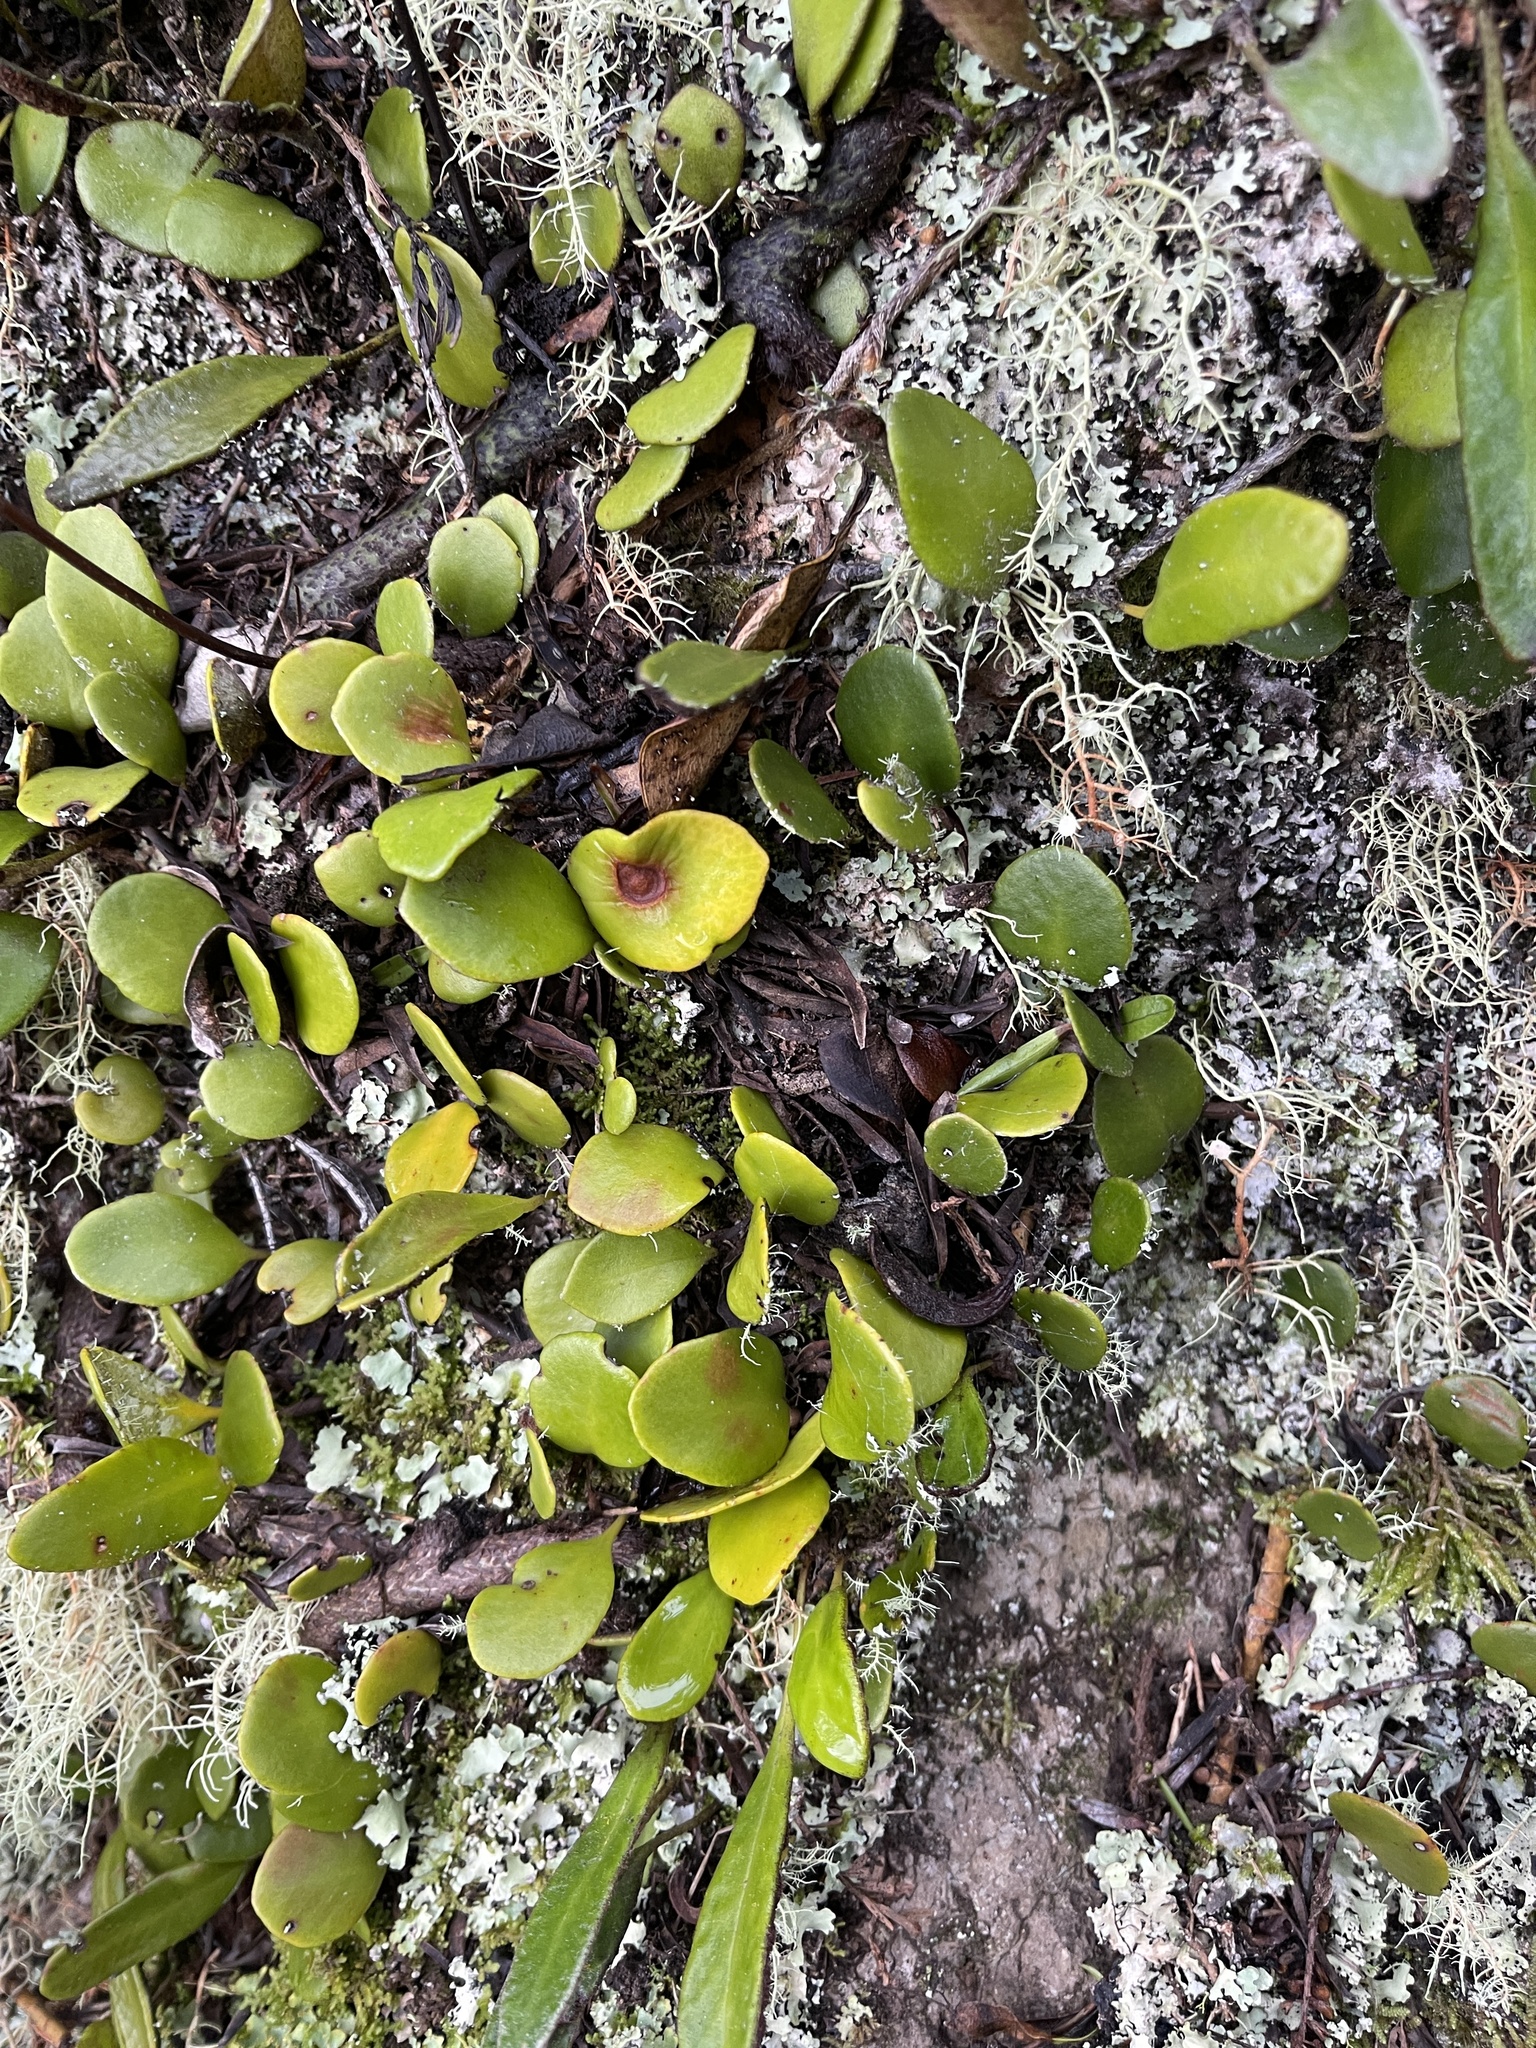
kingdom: Plantae
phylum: Tracheophyta
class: Polypodiopsida
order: Polypodiales
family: Polypodiaceae
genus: Pyrrosia
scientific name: Pyrrosia eleagnifolia
